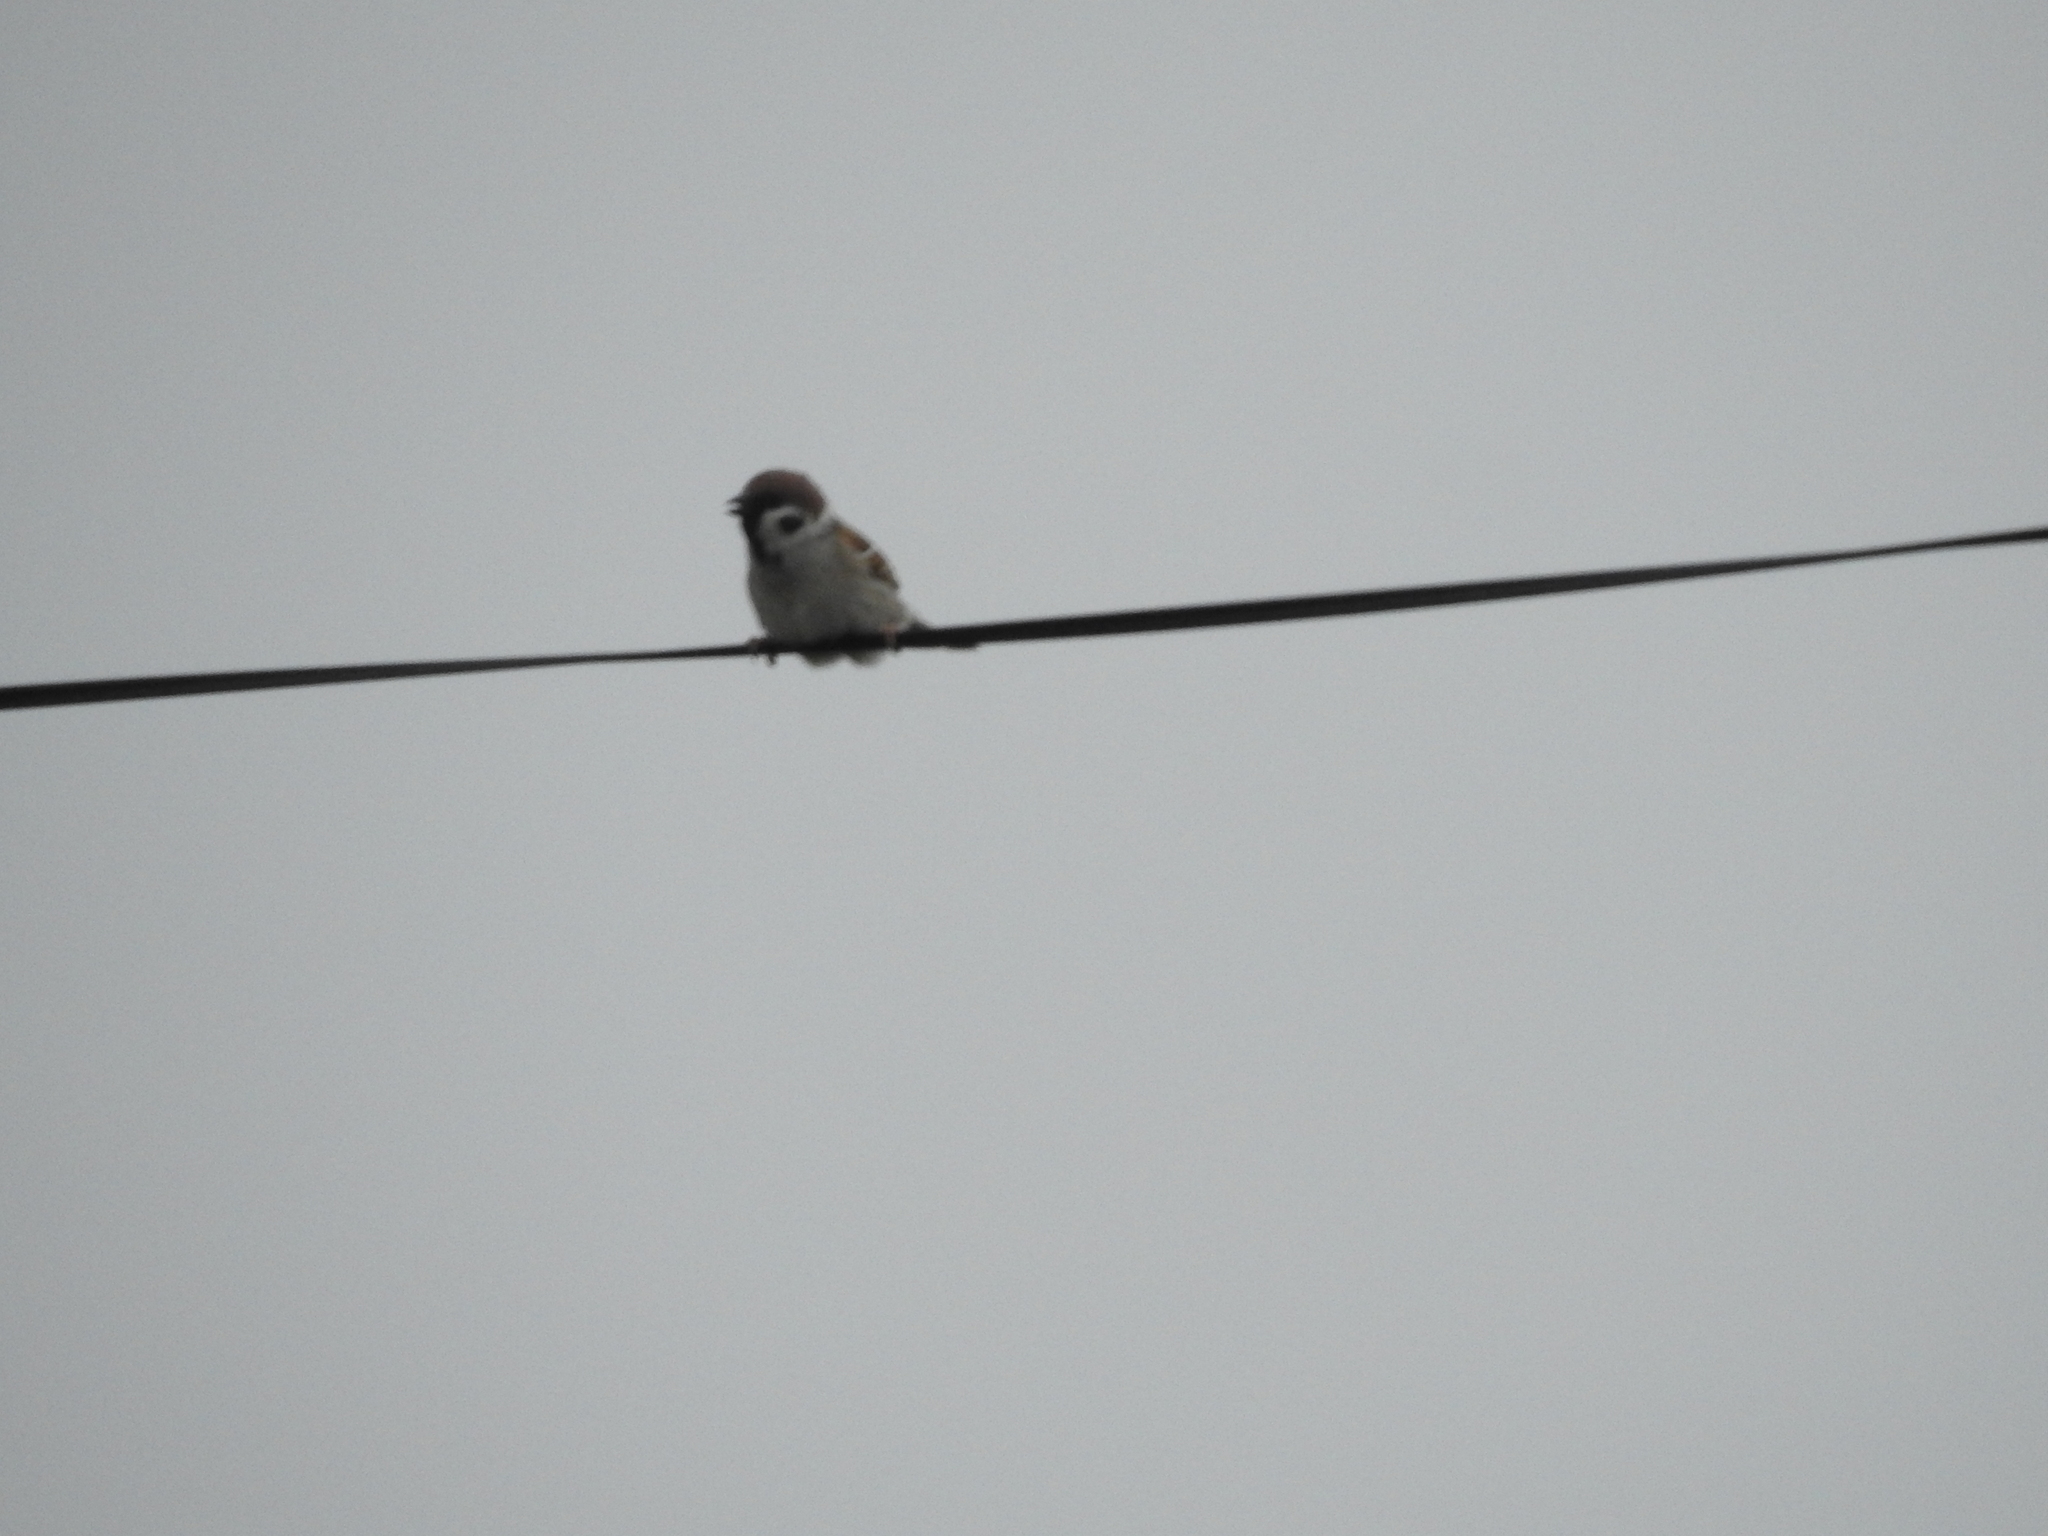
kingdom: Animalia
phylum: Chordata
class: Aves
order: Passeriformes
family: Passeridae
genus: Passer
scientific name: Passer montanus
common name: Eurasian tree sparrow
